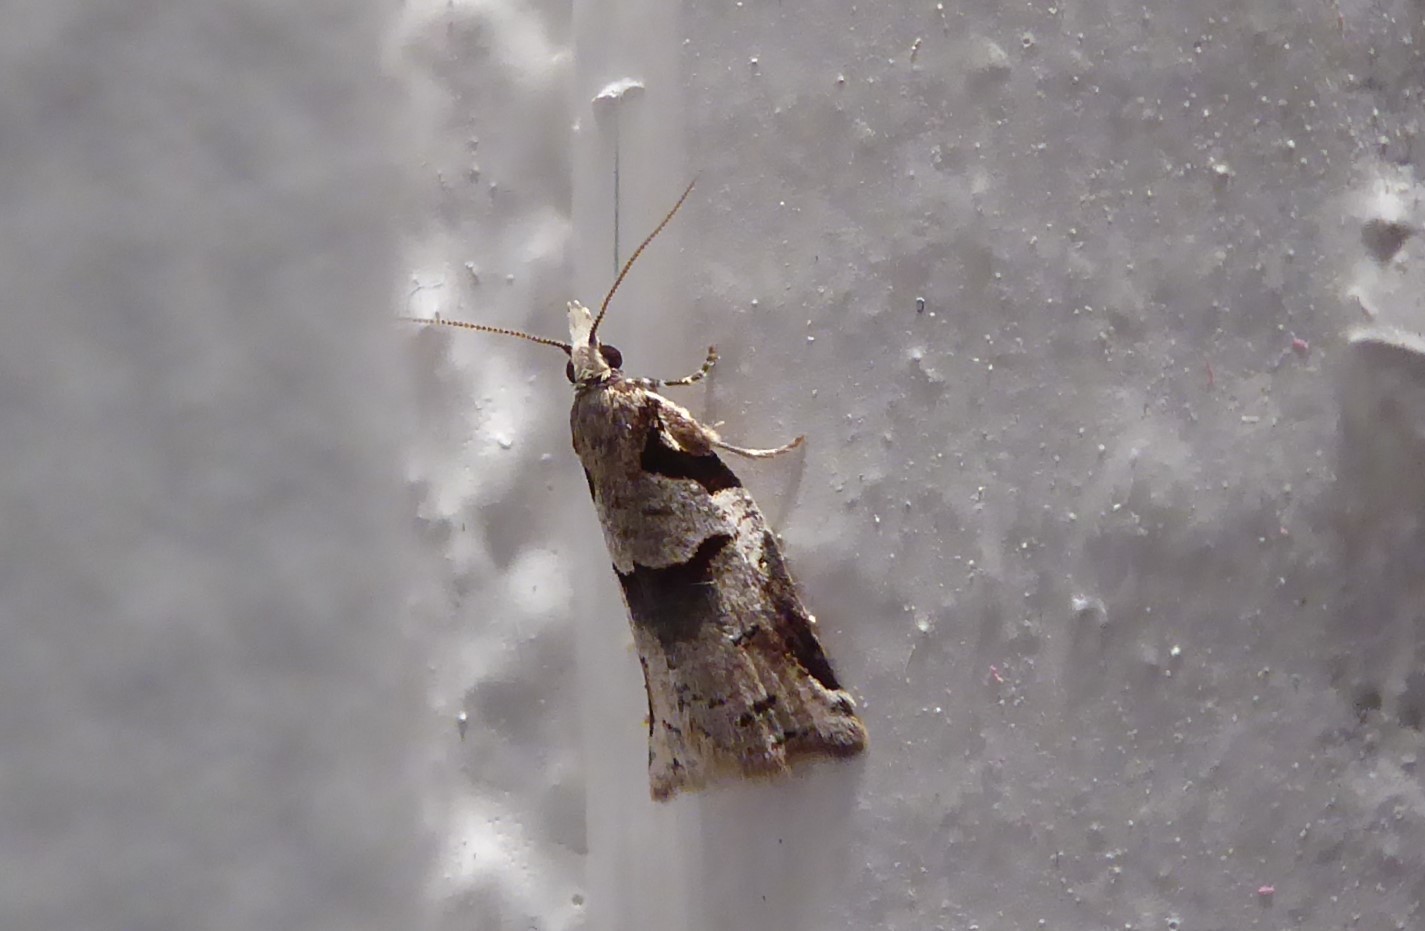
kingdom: Animalia
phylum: Arthropoda
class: Insecta
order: Lepidoptera
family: Tortricidae
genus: Harmologa
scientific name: Harmologa amplexana
